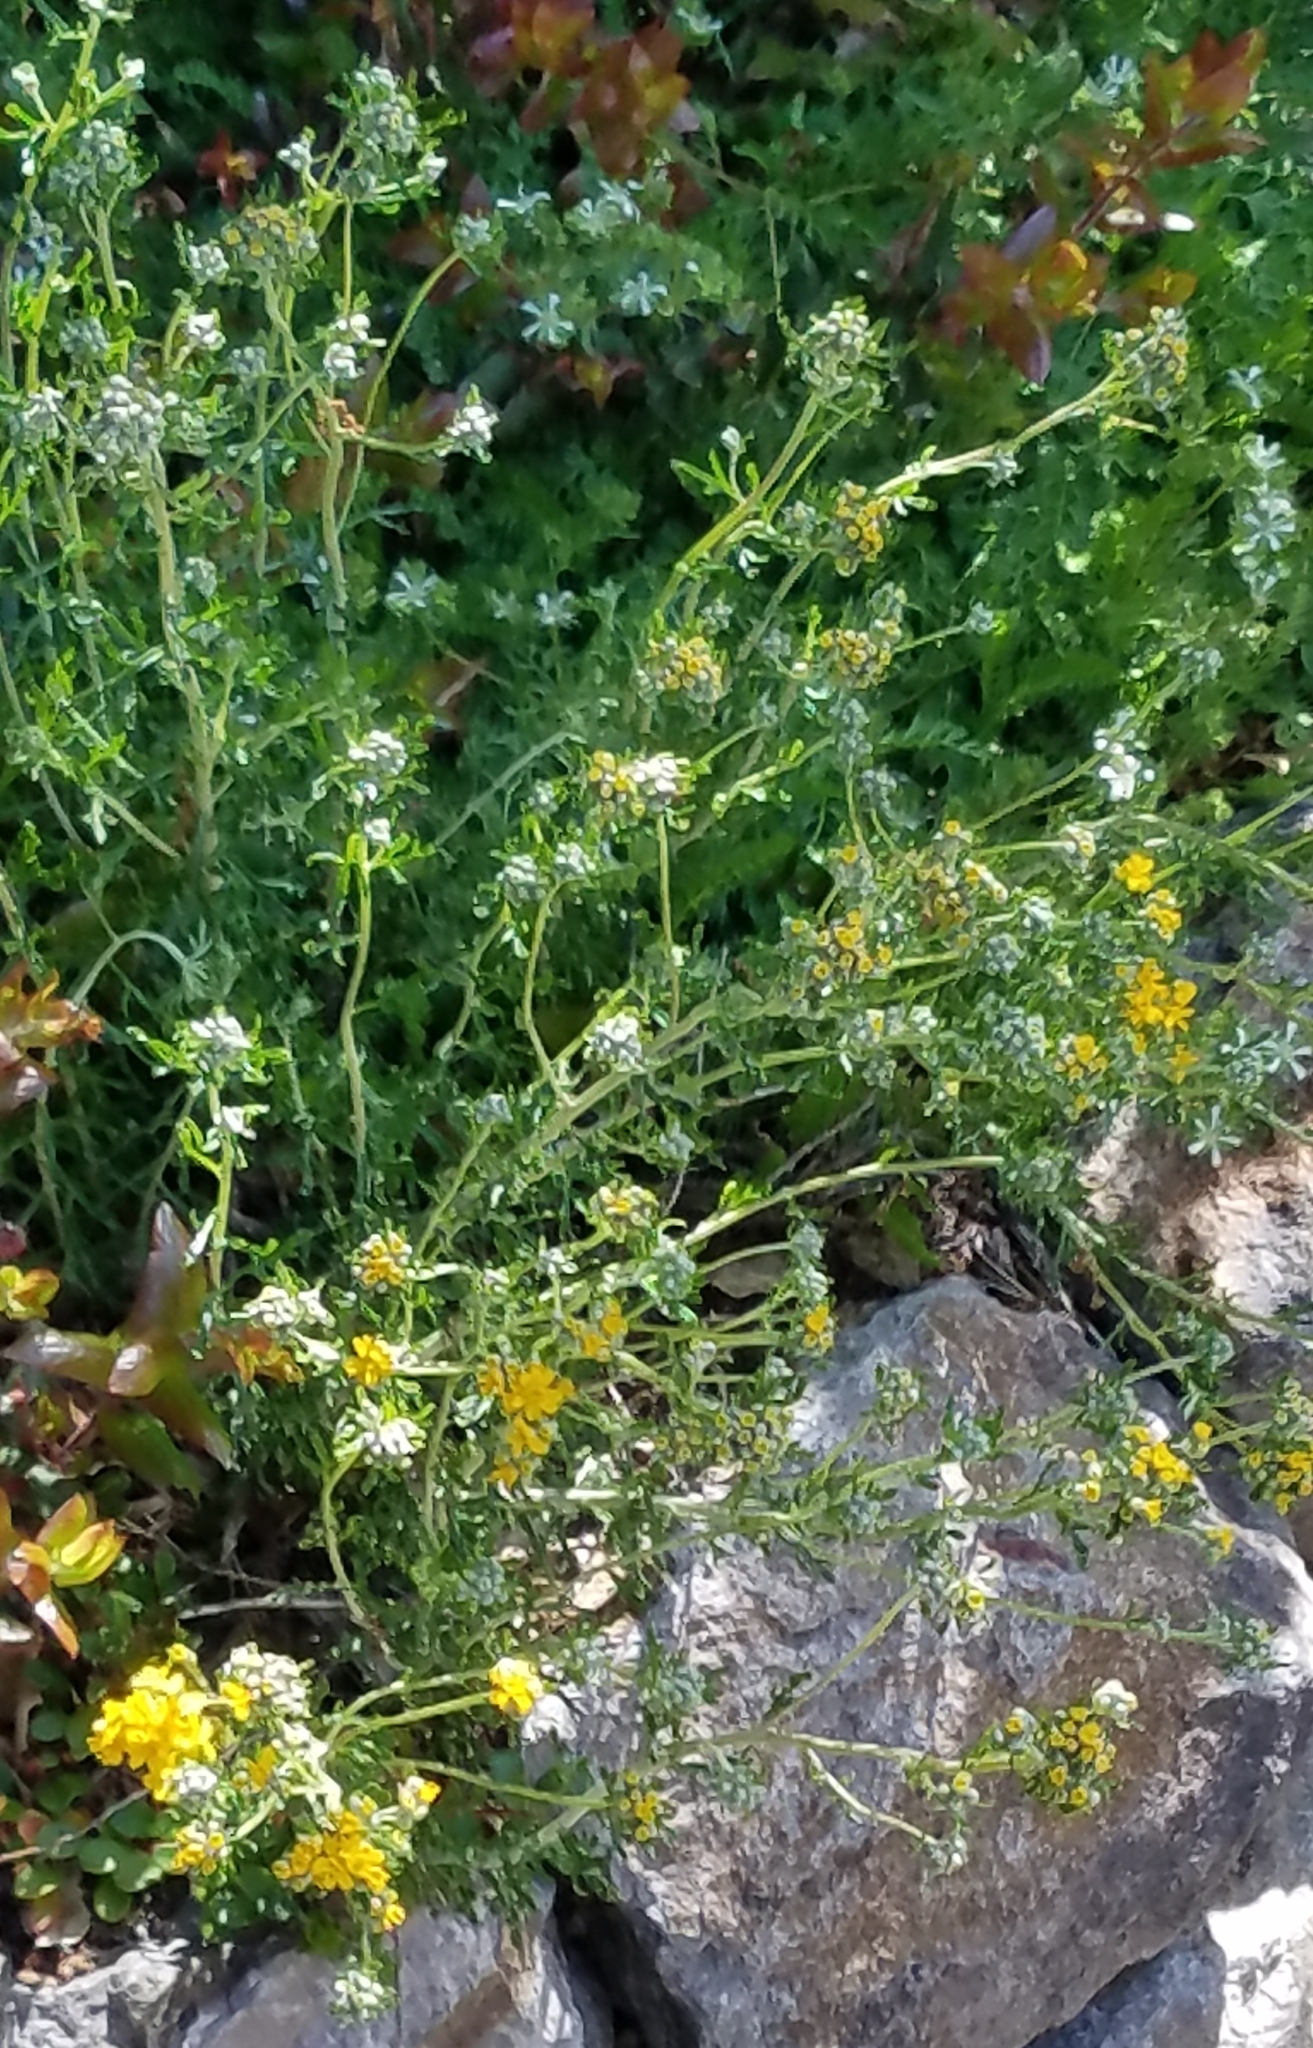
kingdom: Plantae
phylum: Tracheophyta
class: Magnoliopsida
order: Asterales
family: Asteraceae
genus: Eriophyllum
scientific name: Eriophyllum confertiflorum
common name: Golden-yarrow
